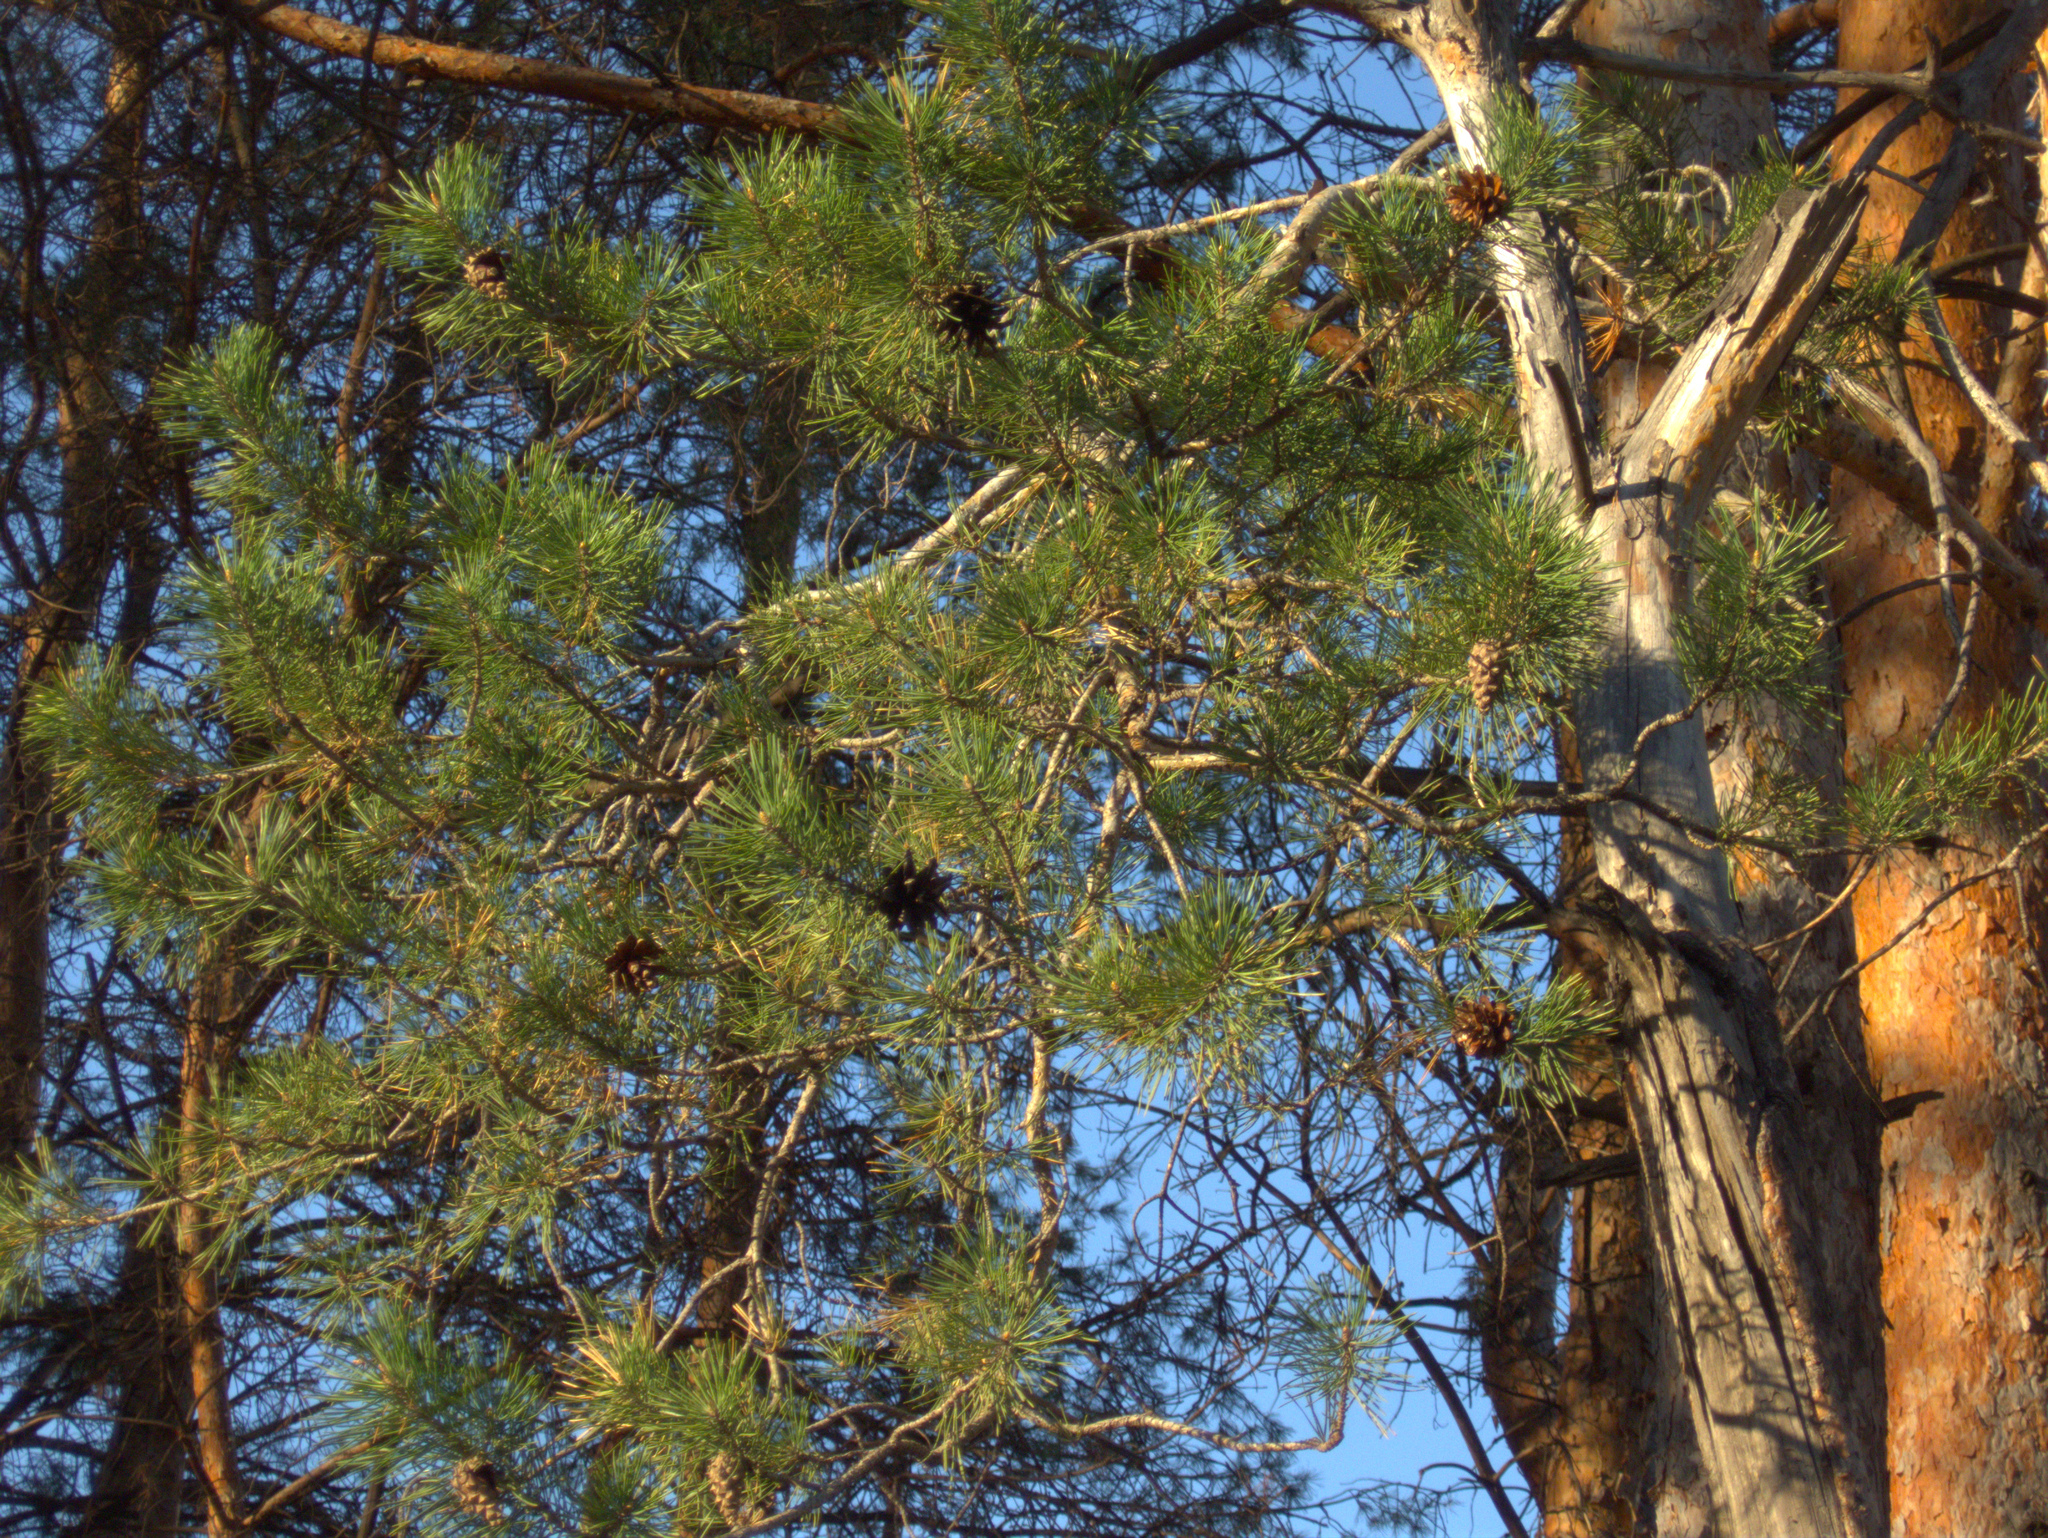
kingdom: Plantae
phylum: Tracheophyta
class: Pinopsida
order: Pinales
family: Pinaceae
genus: Pinus
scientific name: Pinus sylvestris
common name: Scots pine
